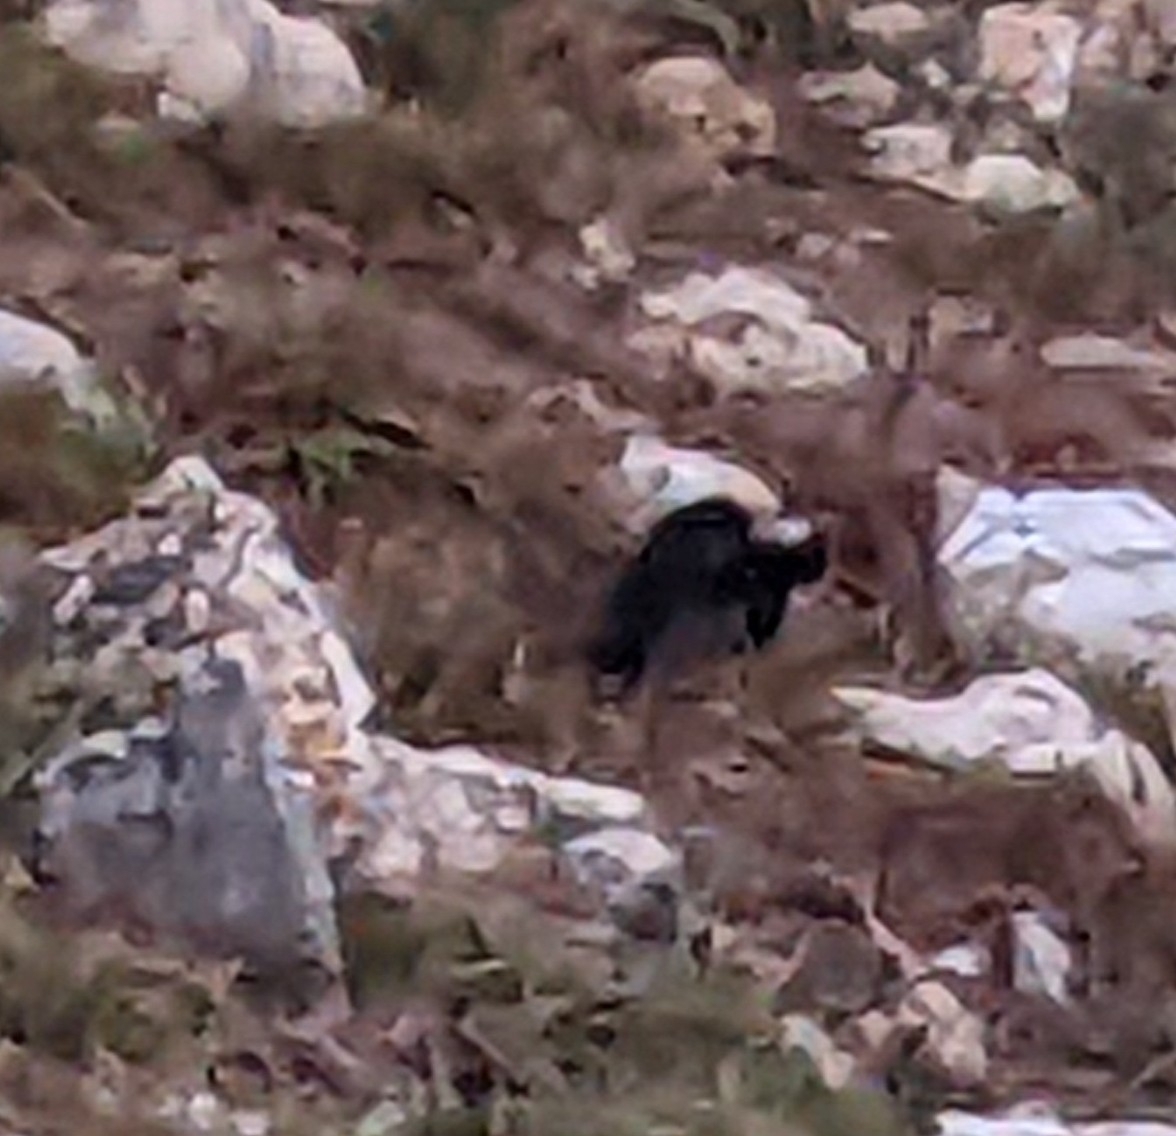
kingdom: Animalia
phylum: Chordata
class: Mammalia
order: Carnivora
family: Mephitidae
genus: Mephitis
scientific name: Mephitis mephitis
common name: Striped skunk
